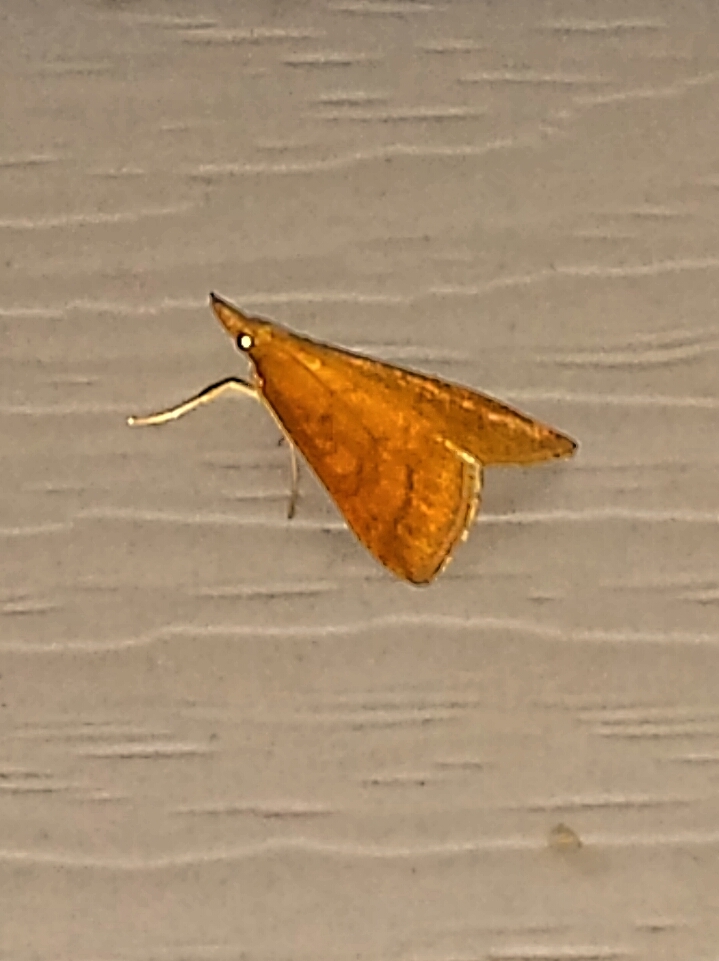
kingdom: Animalia
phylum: Arthropoda
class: Insecta
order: Lepidoptera
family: Crambidae
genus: Udea
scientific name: Udea rubigalis
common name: Celery leaftier moth
